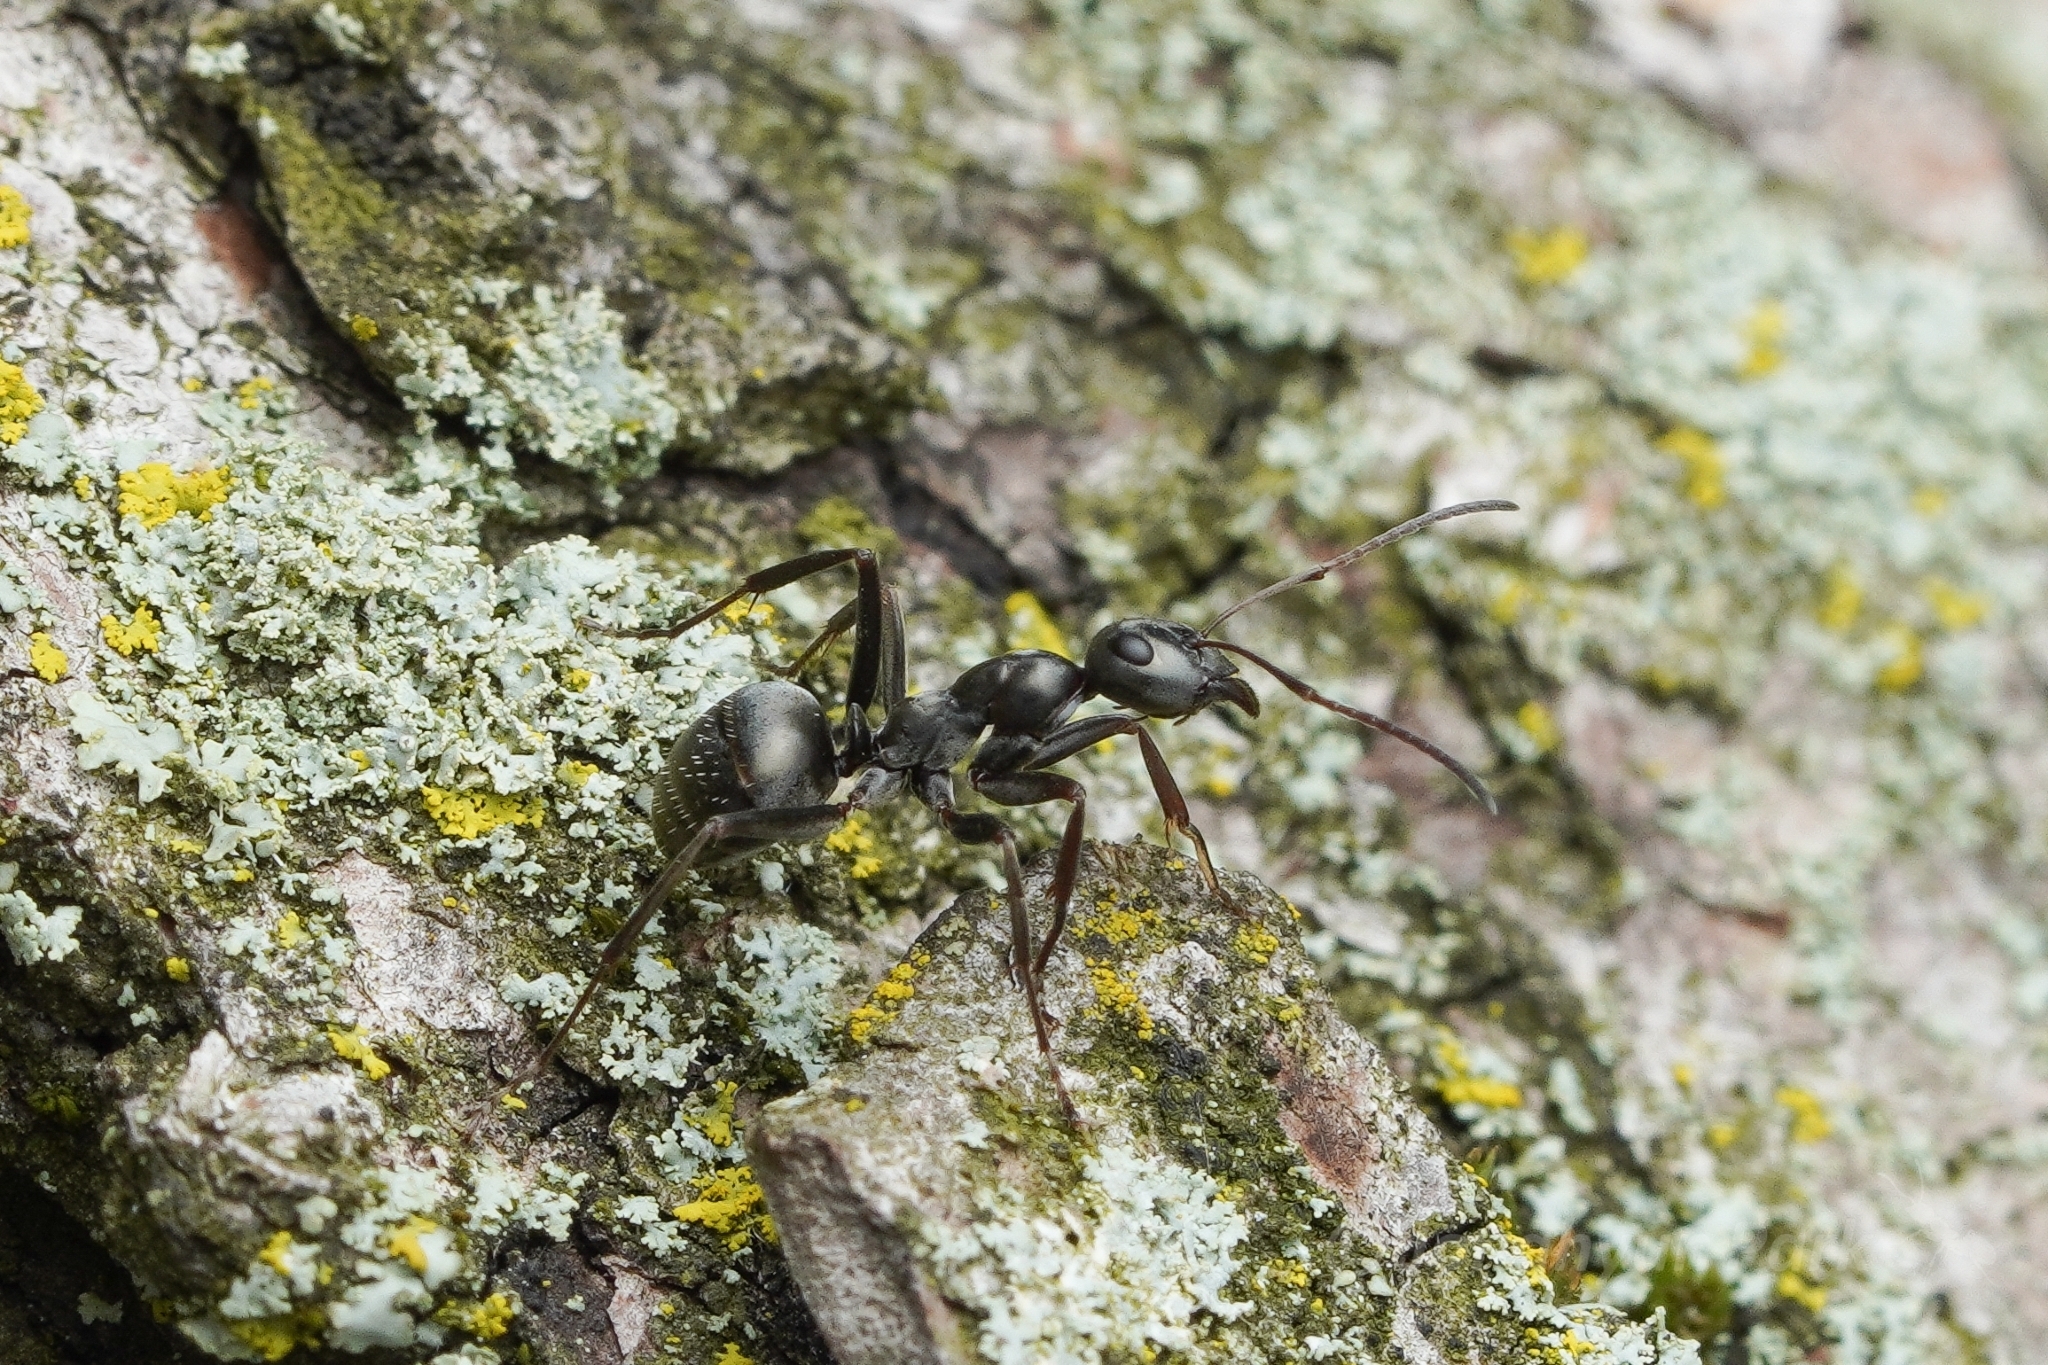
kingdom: Animalia
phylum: Arthropoda
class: Insecta
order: Hymenoptera
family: Formicidae
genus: Formica
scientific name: Formica subsericea
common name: Silky field ant
